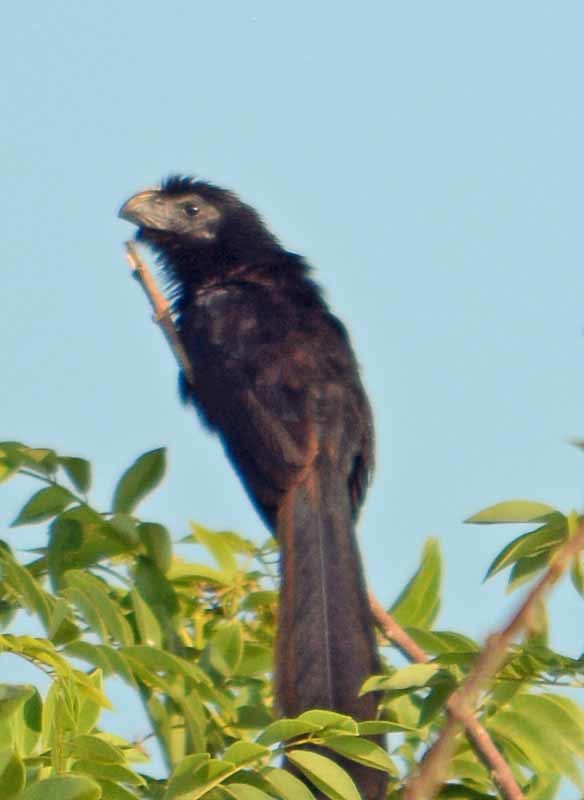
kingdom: Animalia
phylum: Chordata
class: Aves
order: Cuculiformes
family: Cuculidae
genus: Crotophaga
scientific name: Crotophaga sulcirostris
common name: Groove-billed ani
